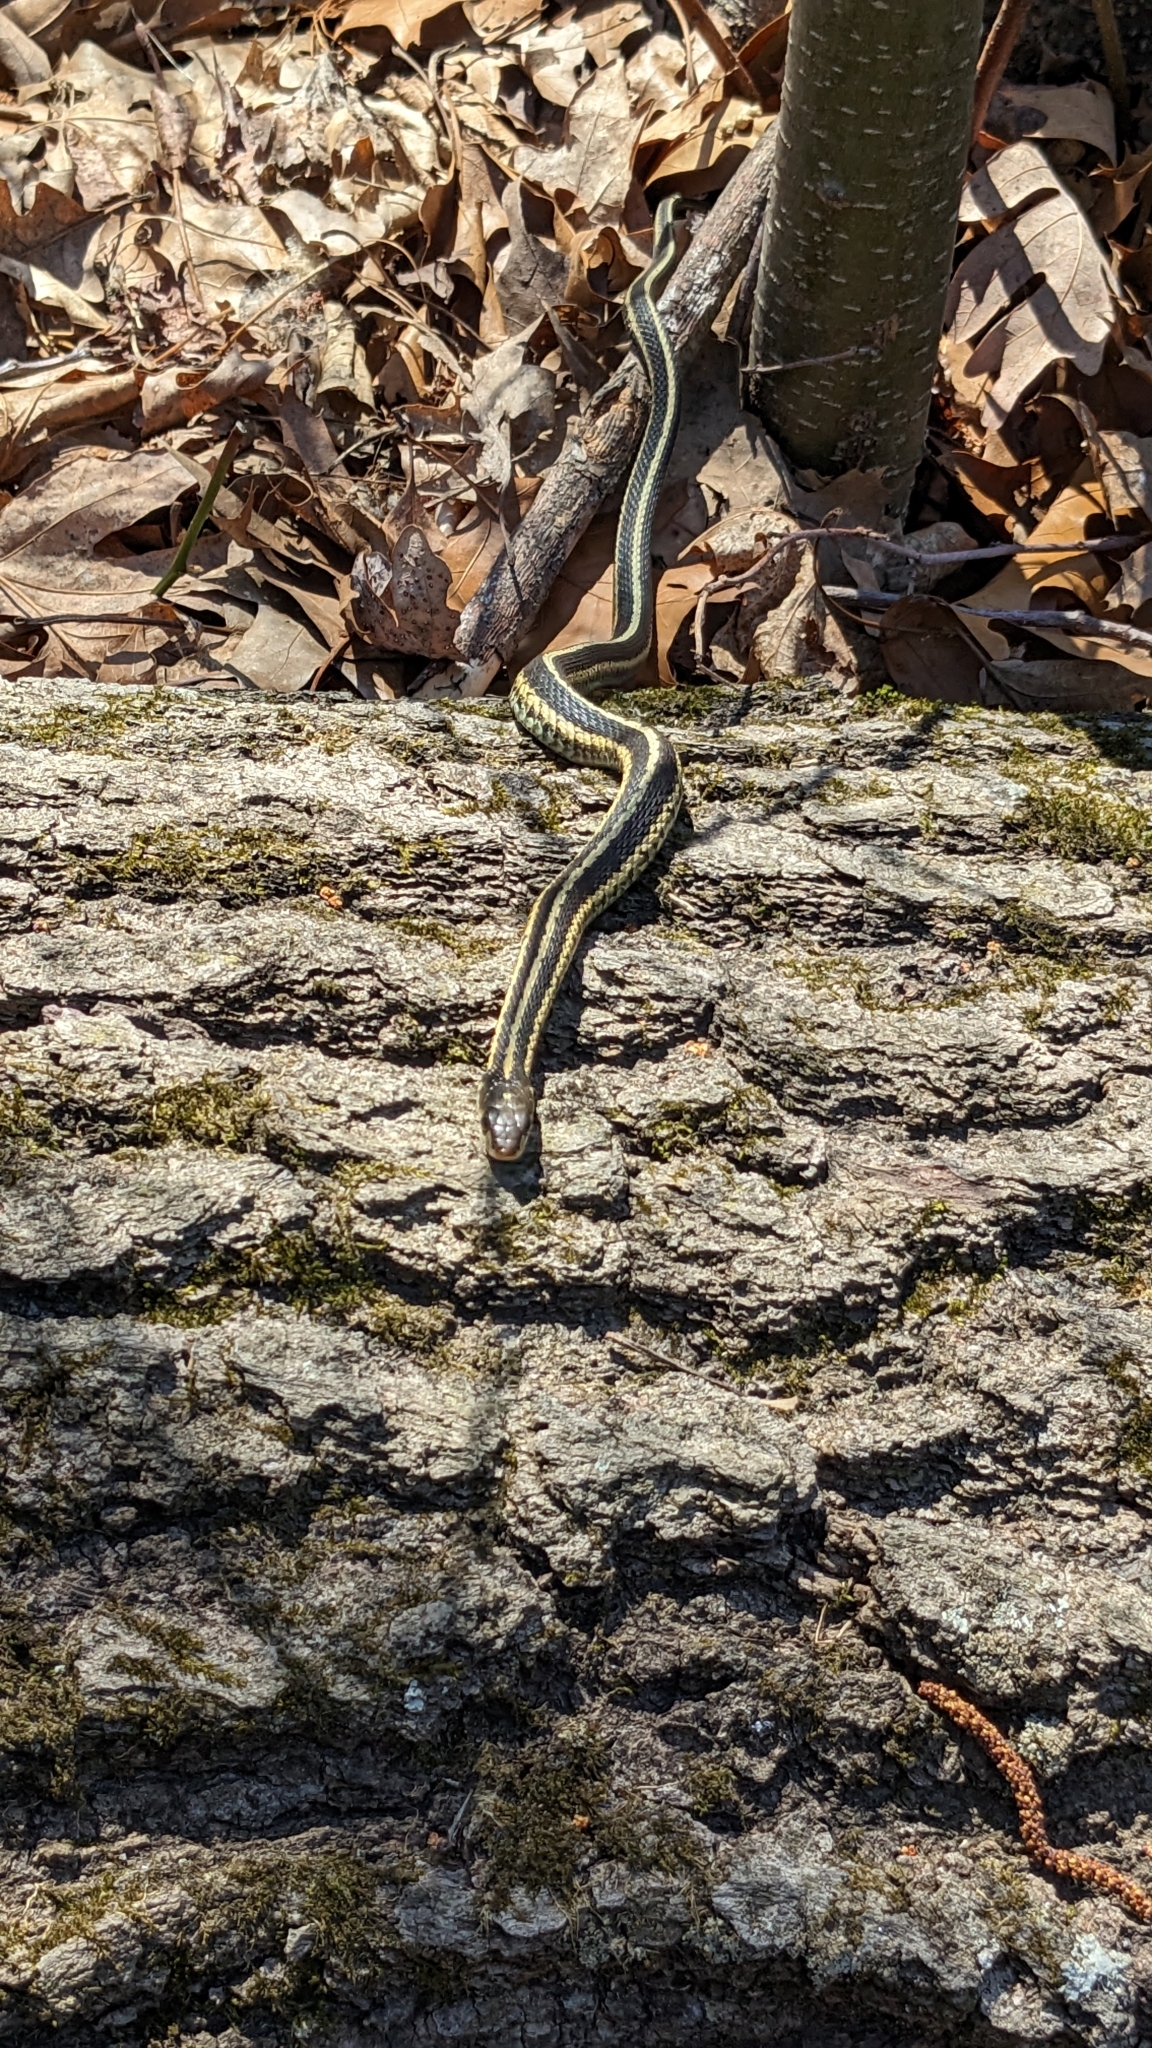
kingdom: Animalia
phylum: Chordata
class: Squamata
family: Colubridae
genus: Thamnophis
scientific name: Thamnophis sirtalis
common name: Common garter snake
